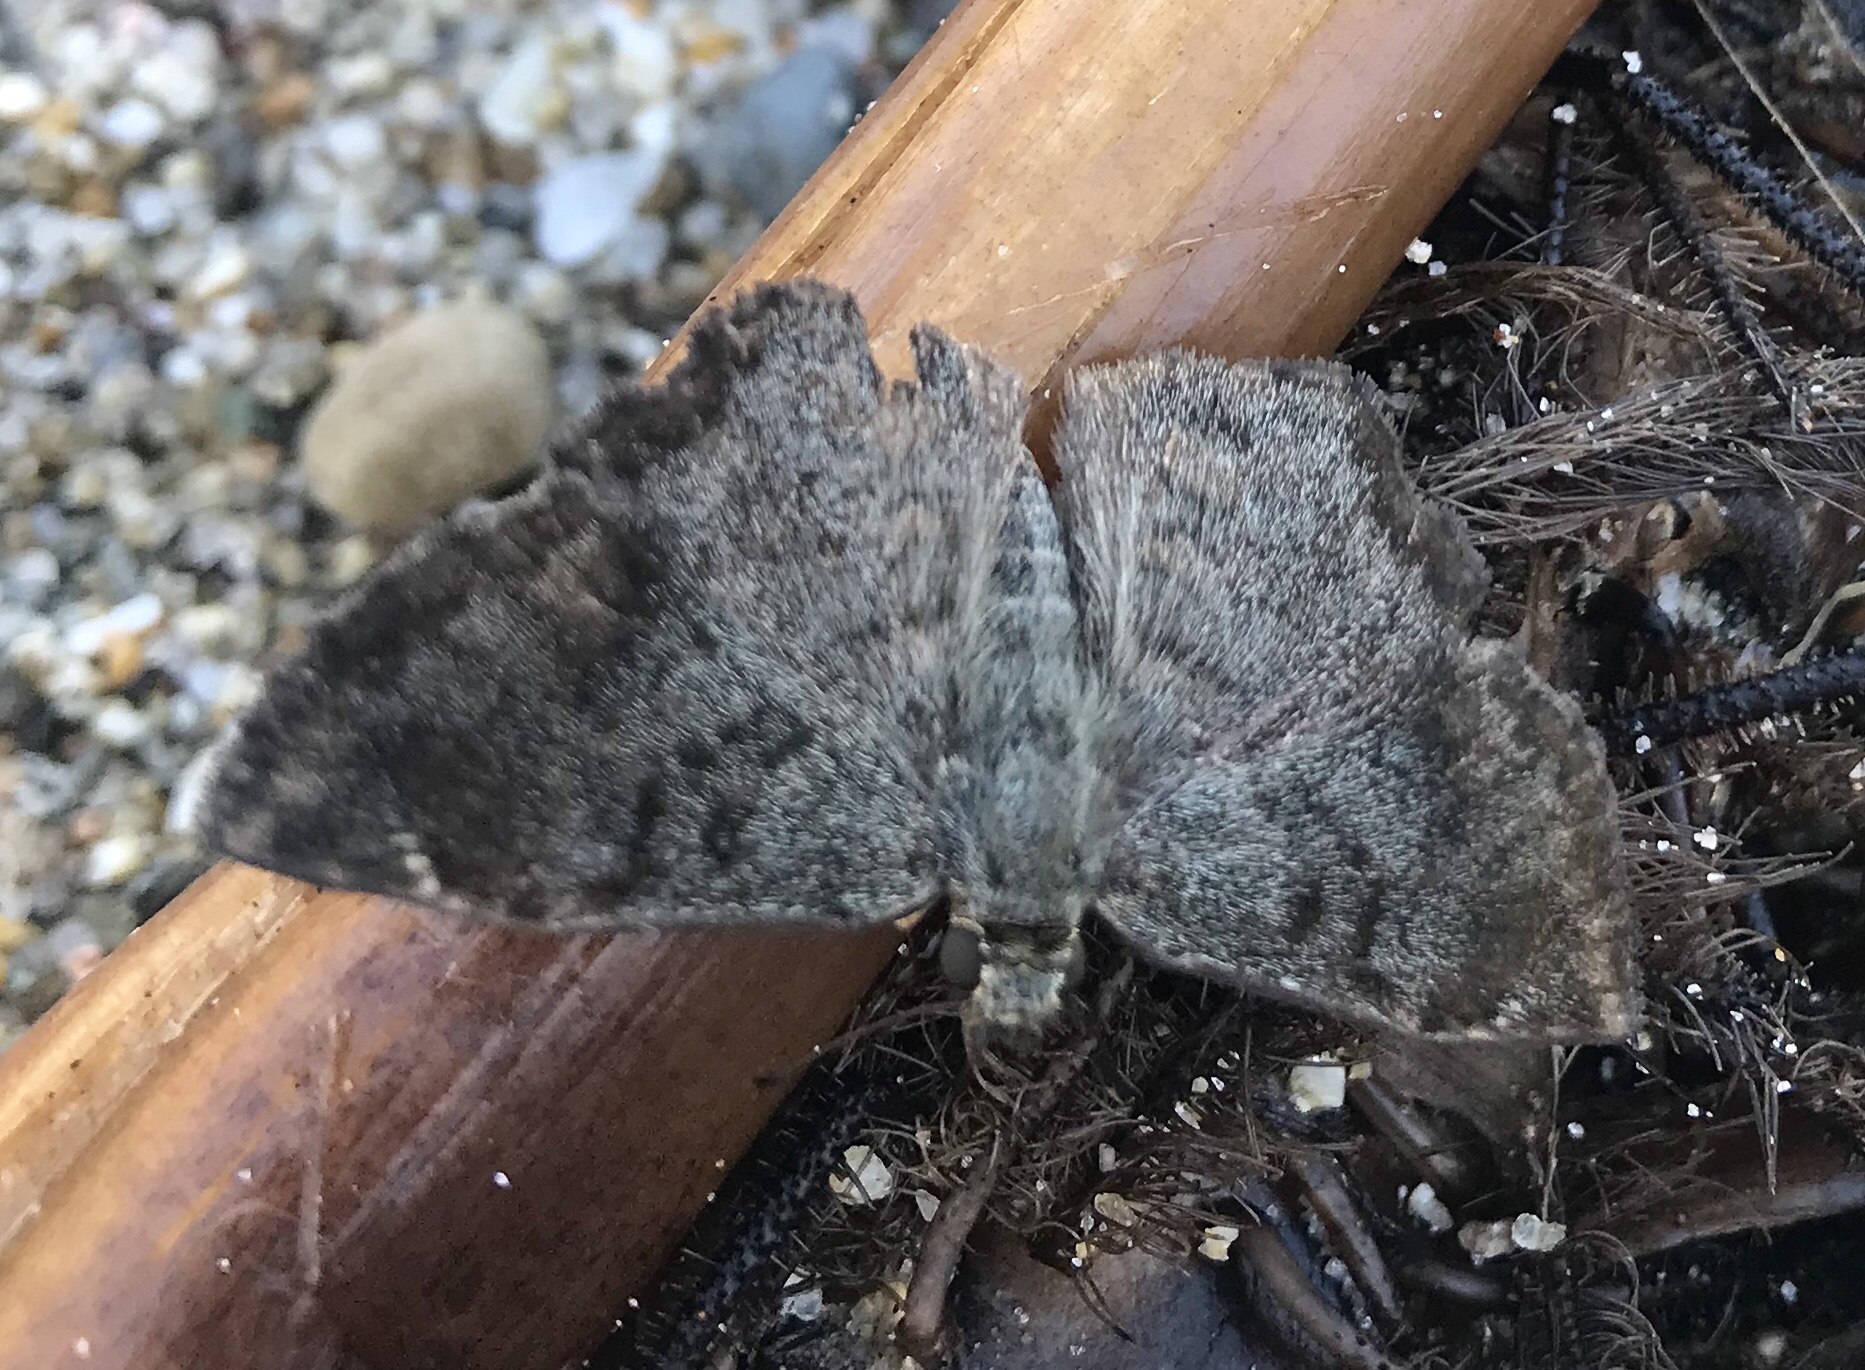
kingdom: Animalia
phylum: Arthropoda
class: Insecta
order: Lepidoptera
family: Hesperiidae
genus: Antigonus
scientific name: Antigonus erosus
